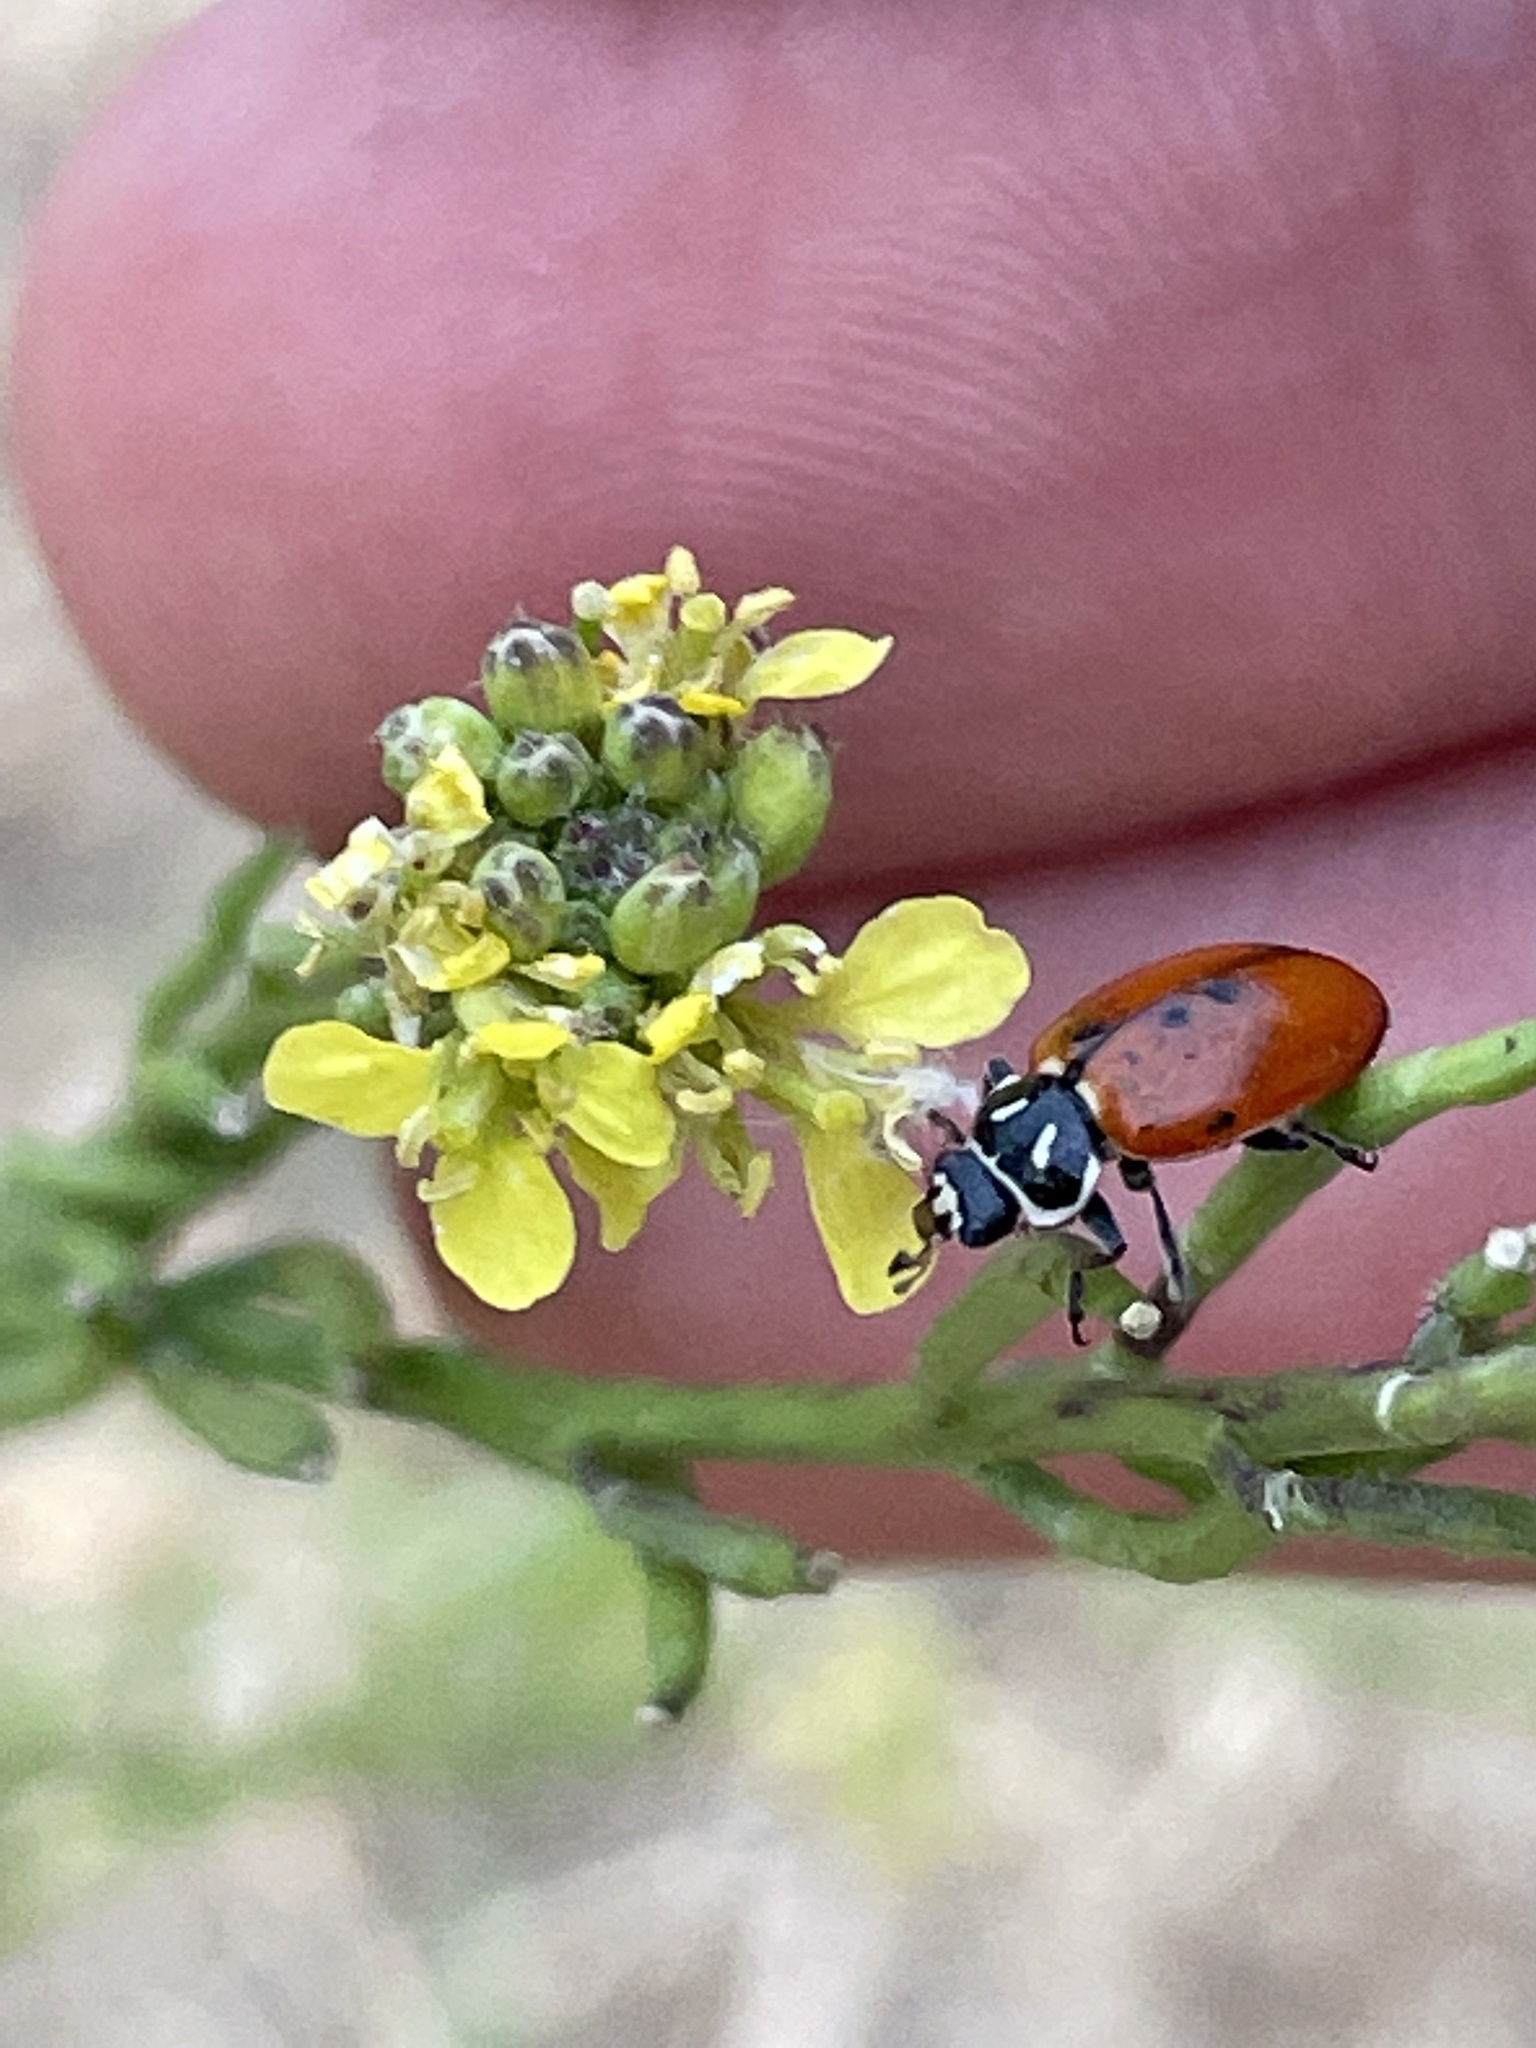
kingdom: Animalia
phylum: Arthropoda
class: Insecta
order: Coleoptera
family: Coccinellidae
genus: Hippodamia
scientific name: Hippodamia convergens
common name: Convergent lady beetle
